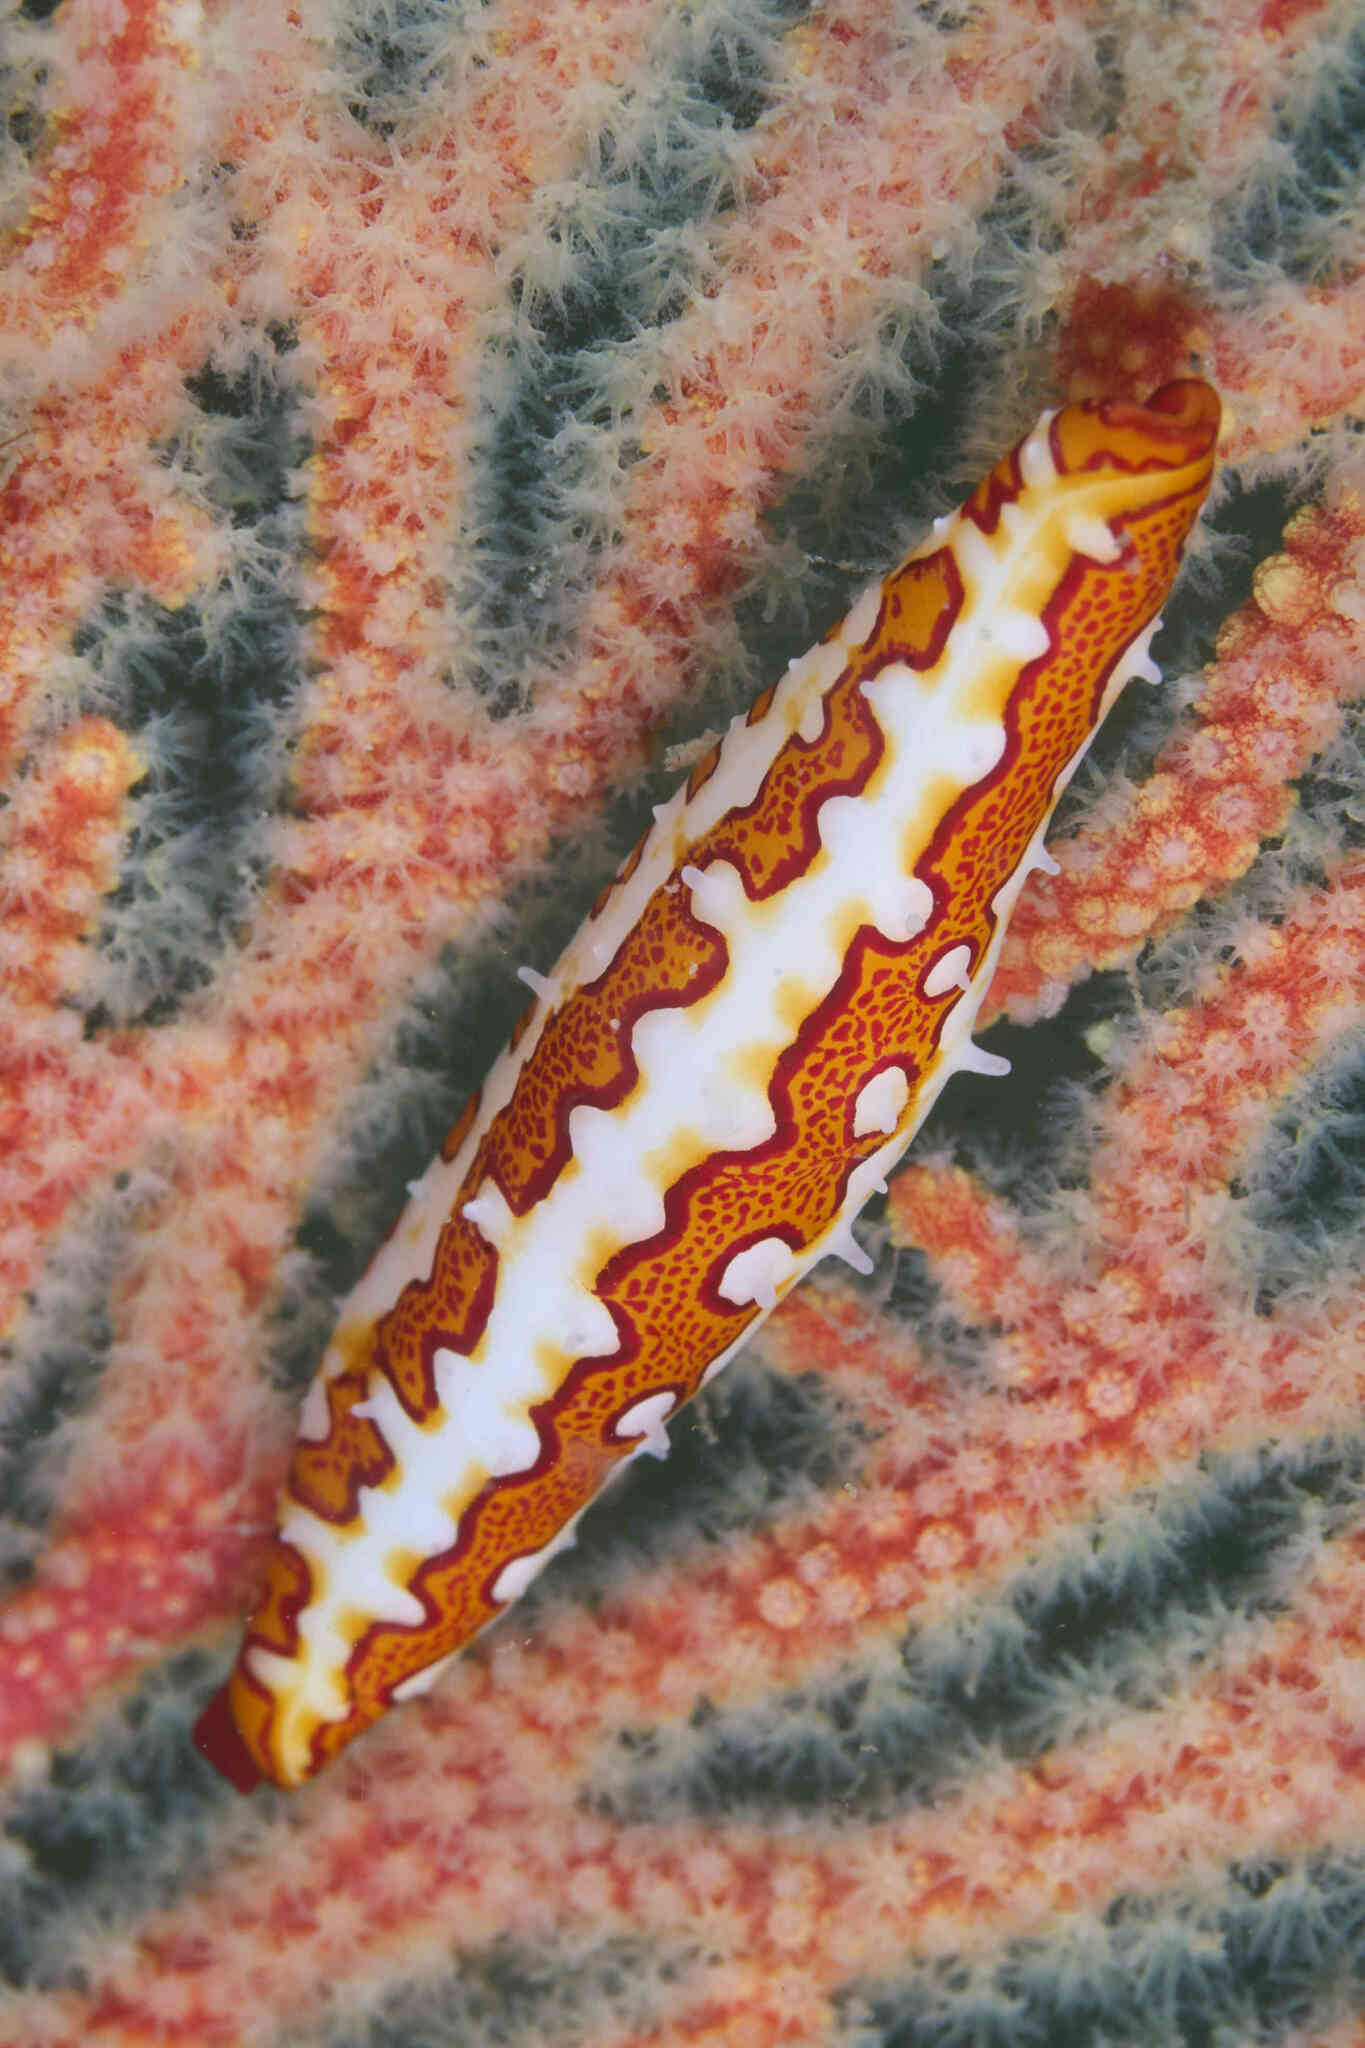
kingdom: Animalia
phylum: Mollusca
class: Gastropoda
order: Littorinimorpha
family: Ovulidae
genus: Pellasimnia
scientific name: Pellasimnia improcera
